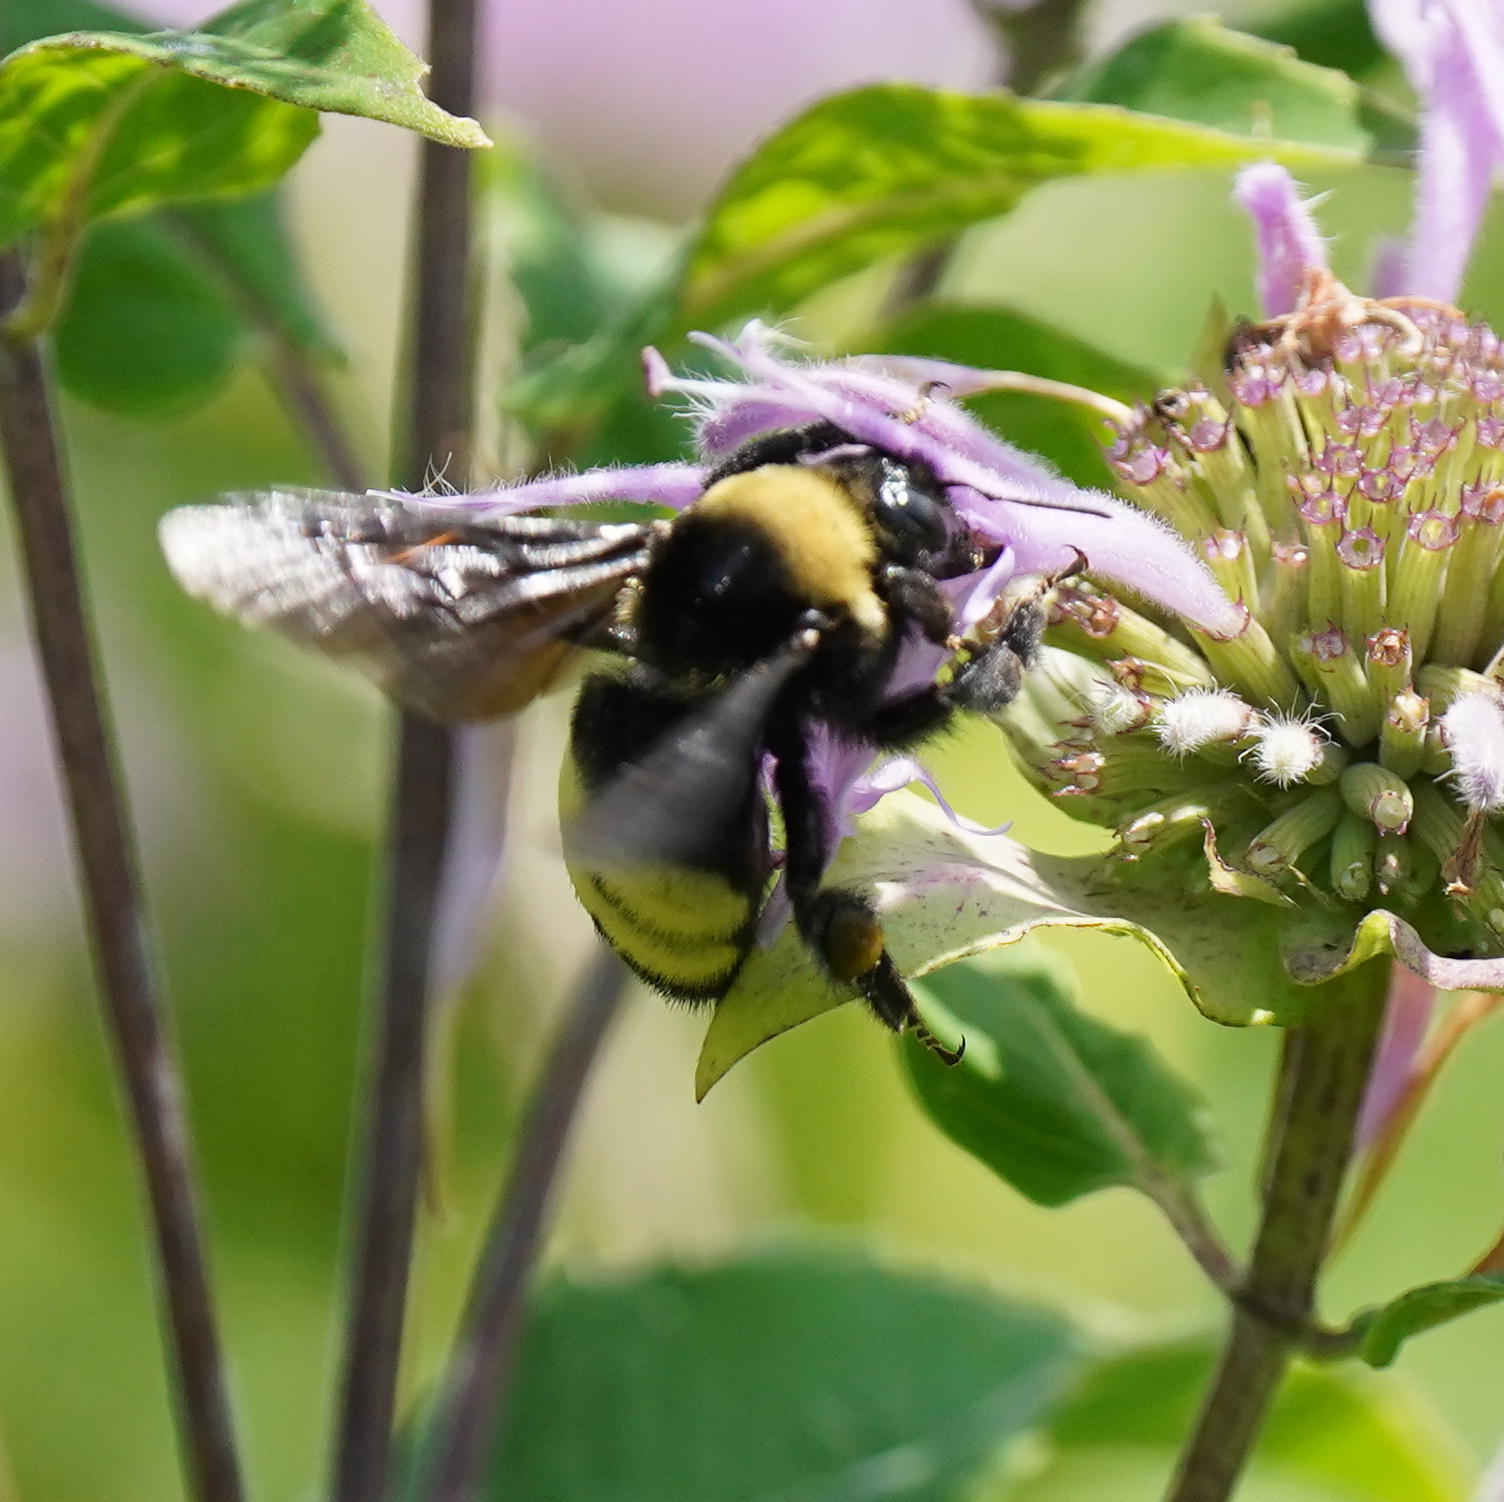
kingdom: Animalia
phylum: Arthropoda
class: Insecta
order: Hymenoptera
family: Apidae
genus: Bombus
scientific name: Bombus auricomus
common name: Black and gold bumble bee
